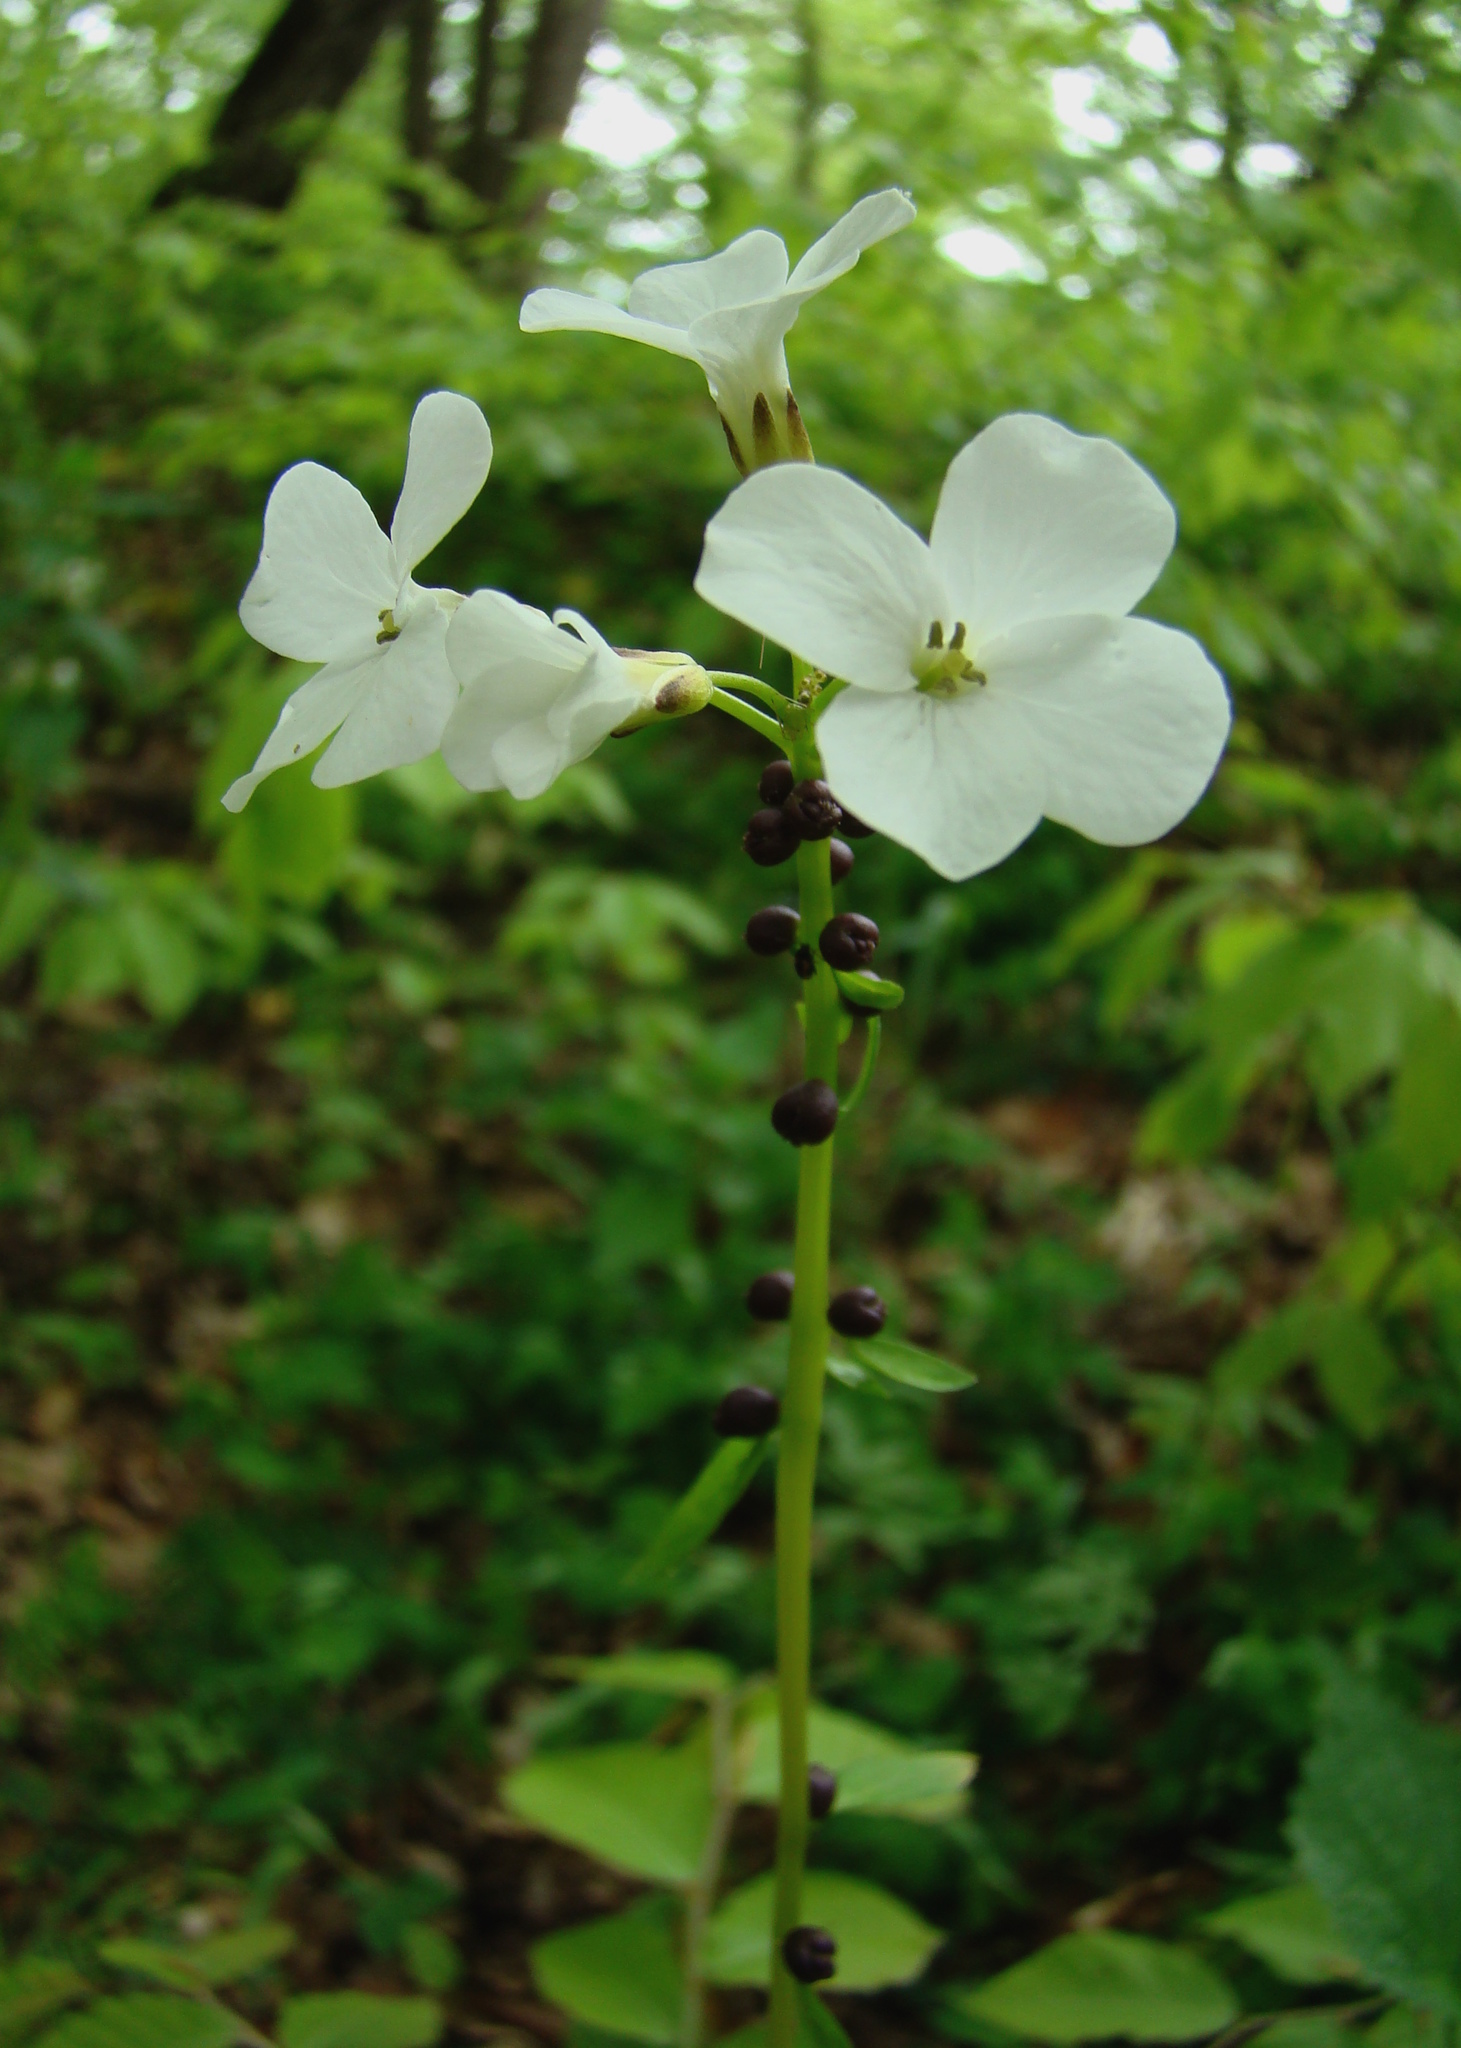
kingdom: Plantae
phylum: Tracheophyta
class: Magnoliopsida
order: Brassicales
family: Brassicaceae
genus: Cardamine
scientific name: Cardamine bulbifera
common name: Coralroot bittercress
